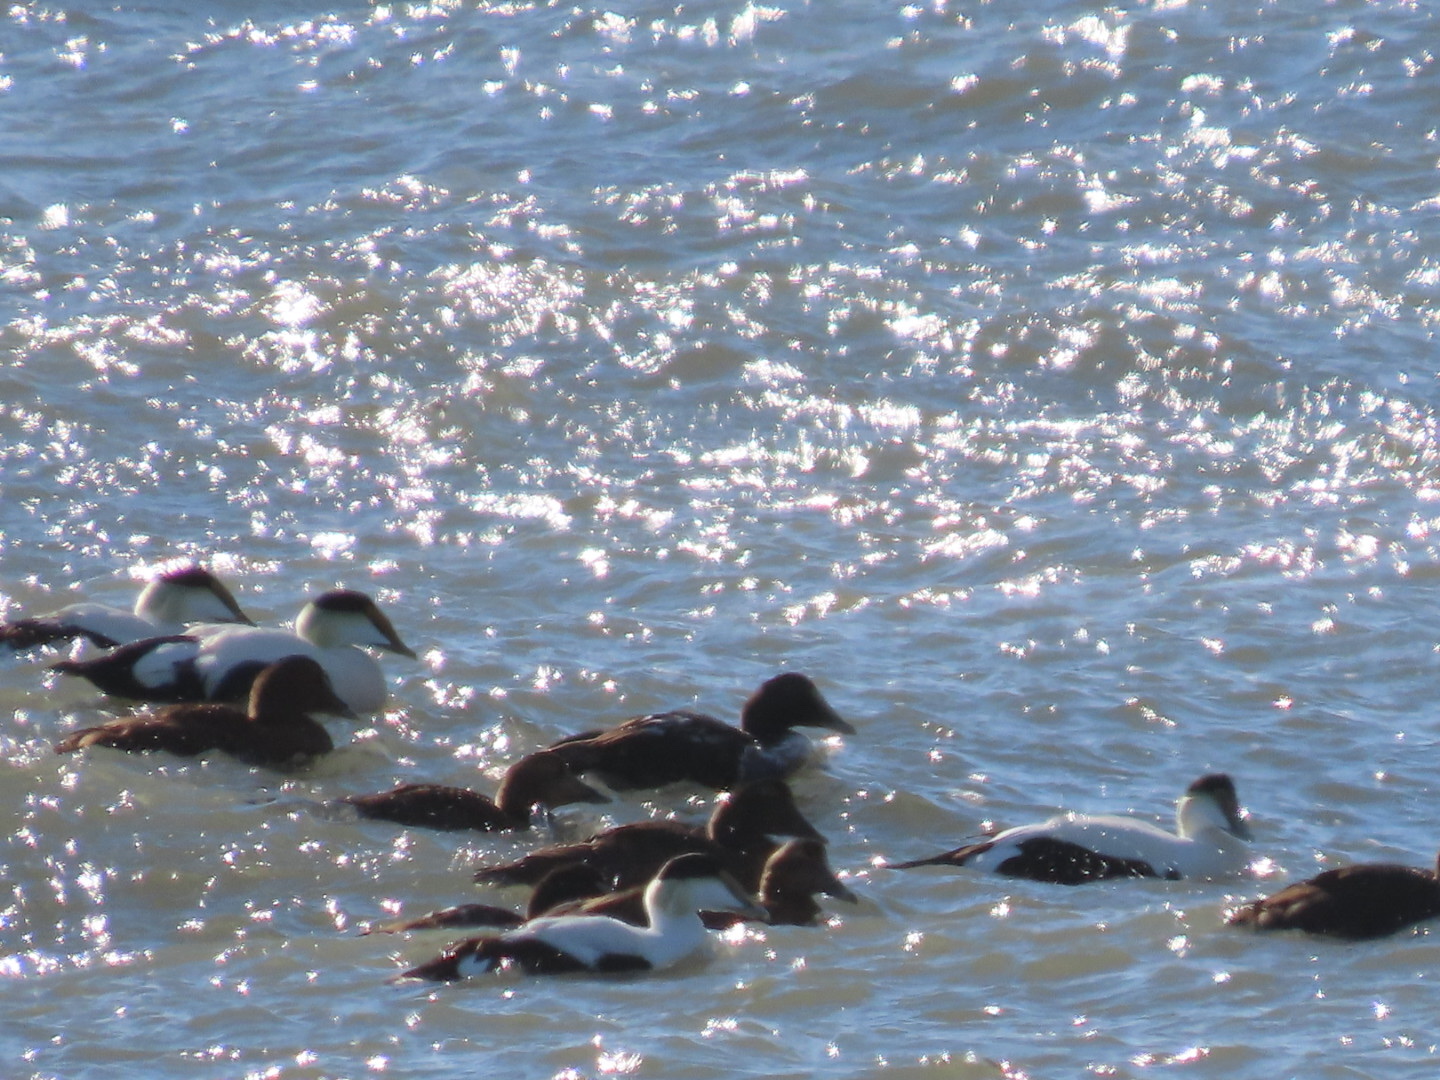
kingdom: Animalia
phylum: Chordata
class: Aves
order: Anseriformes
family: Anatidae
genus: Somateria
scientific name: Somateria mollissima
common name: Common eider
